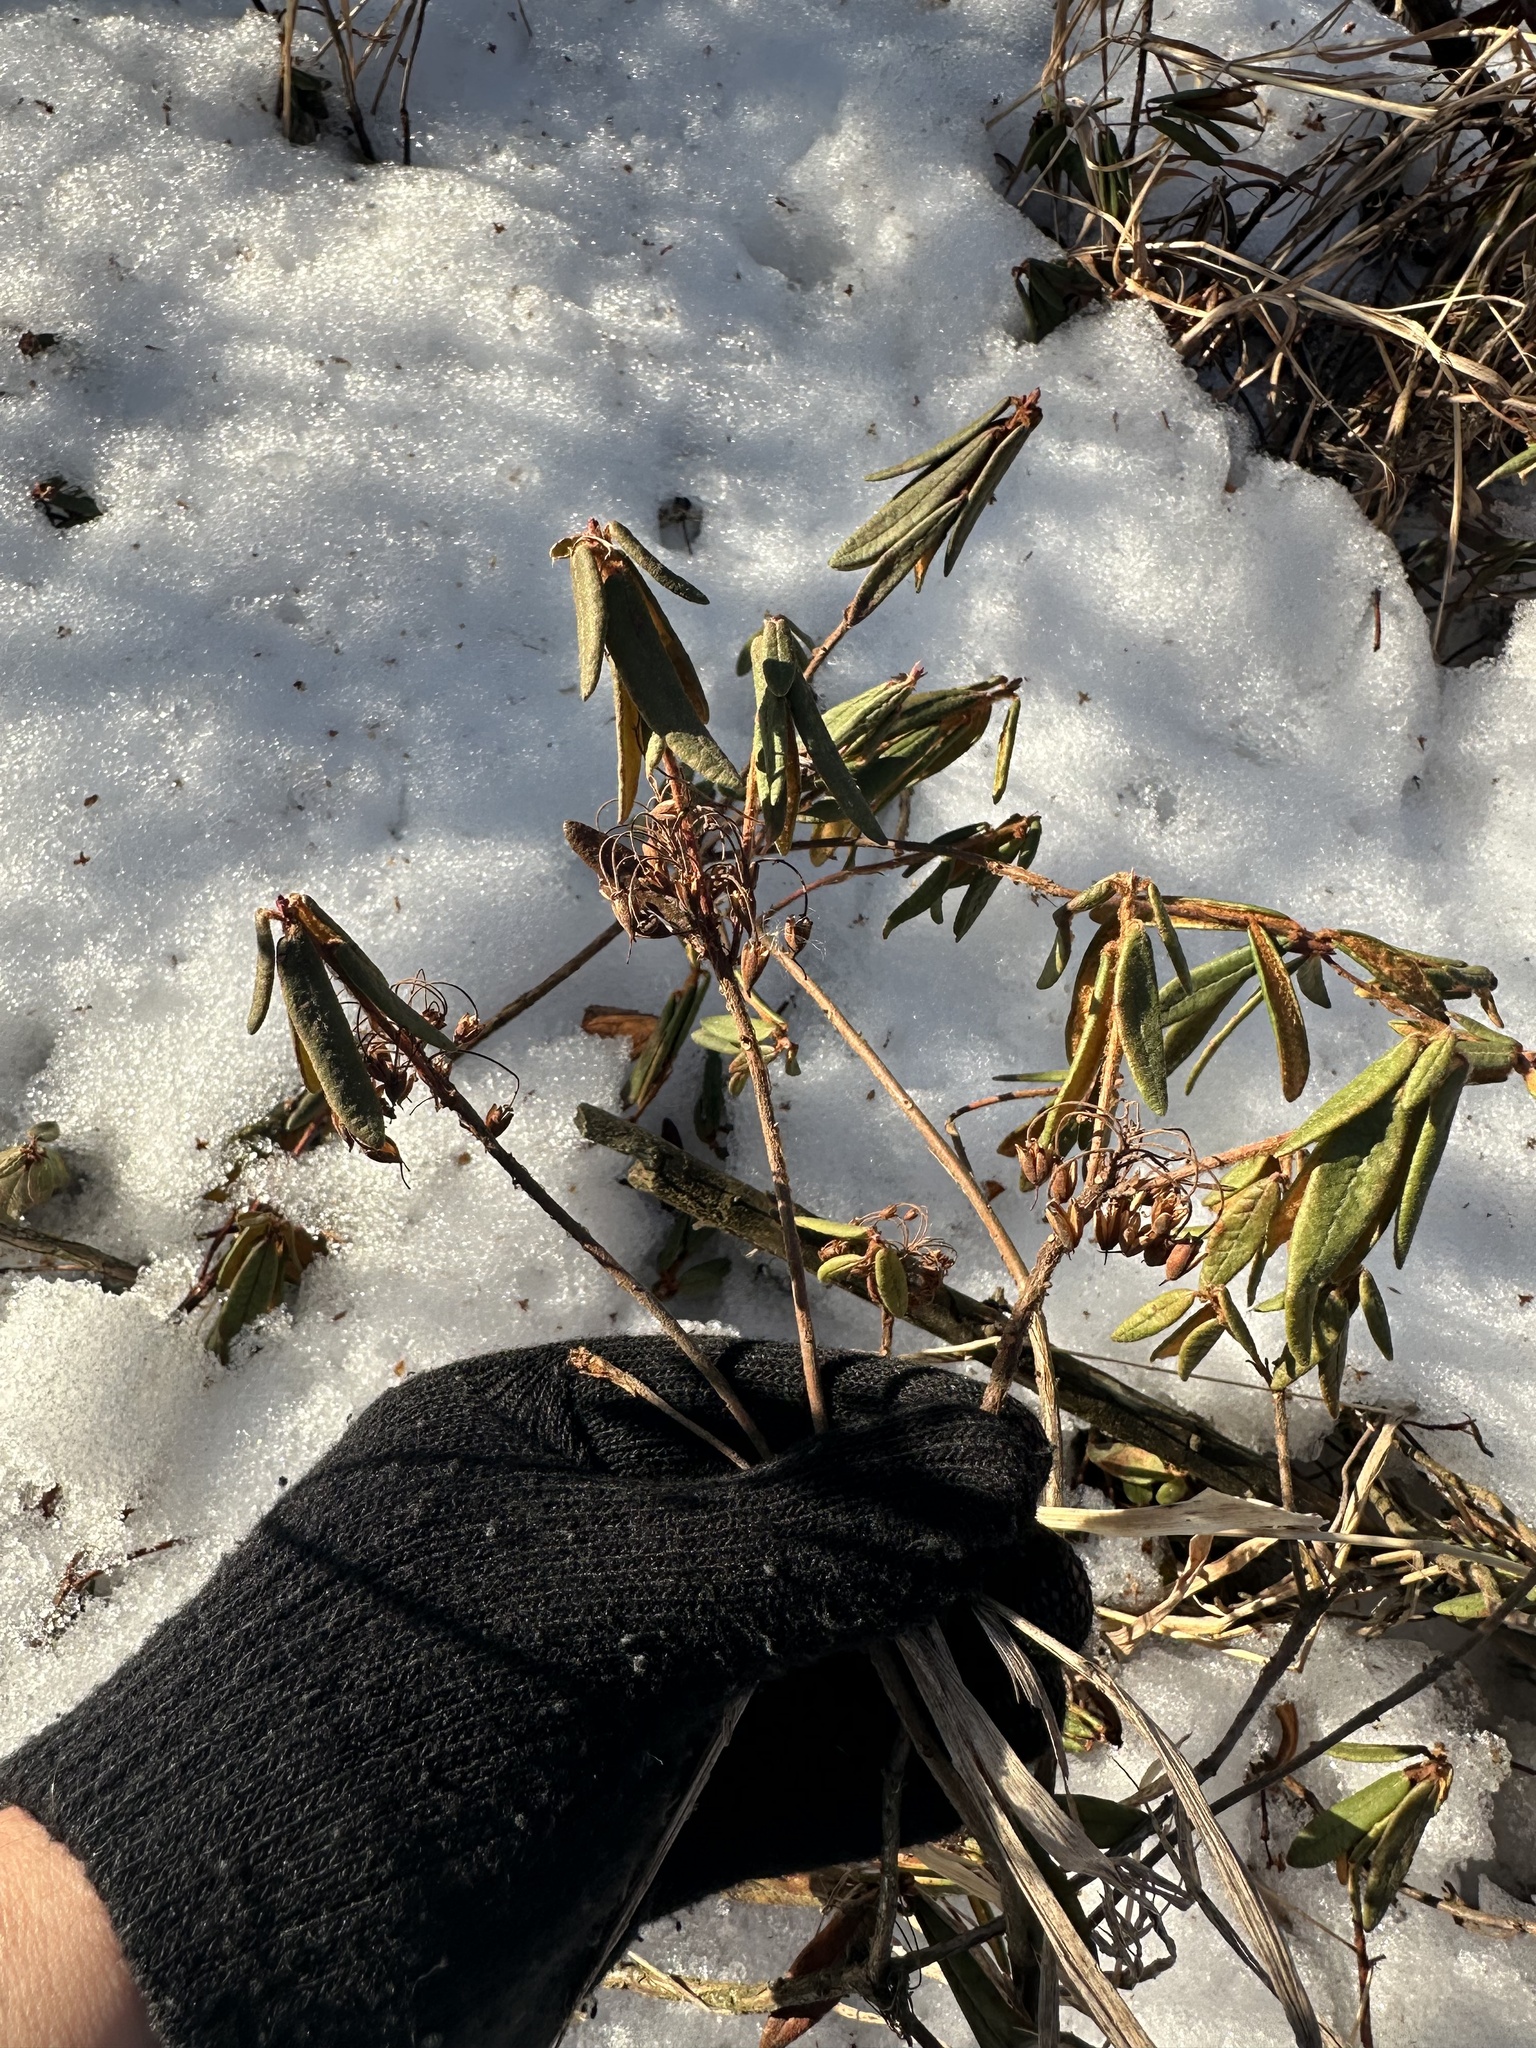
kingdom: Plantae
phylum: Tracheophyta
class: Magnoliopsida
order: Ericales
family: Ericaceae
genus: Rhododendron
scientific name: Rhododendron groenlandicum
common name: Bog labrador tea
